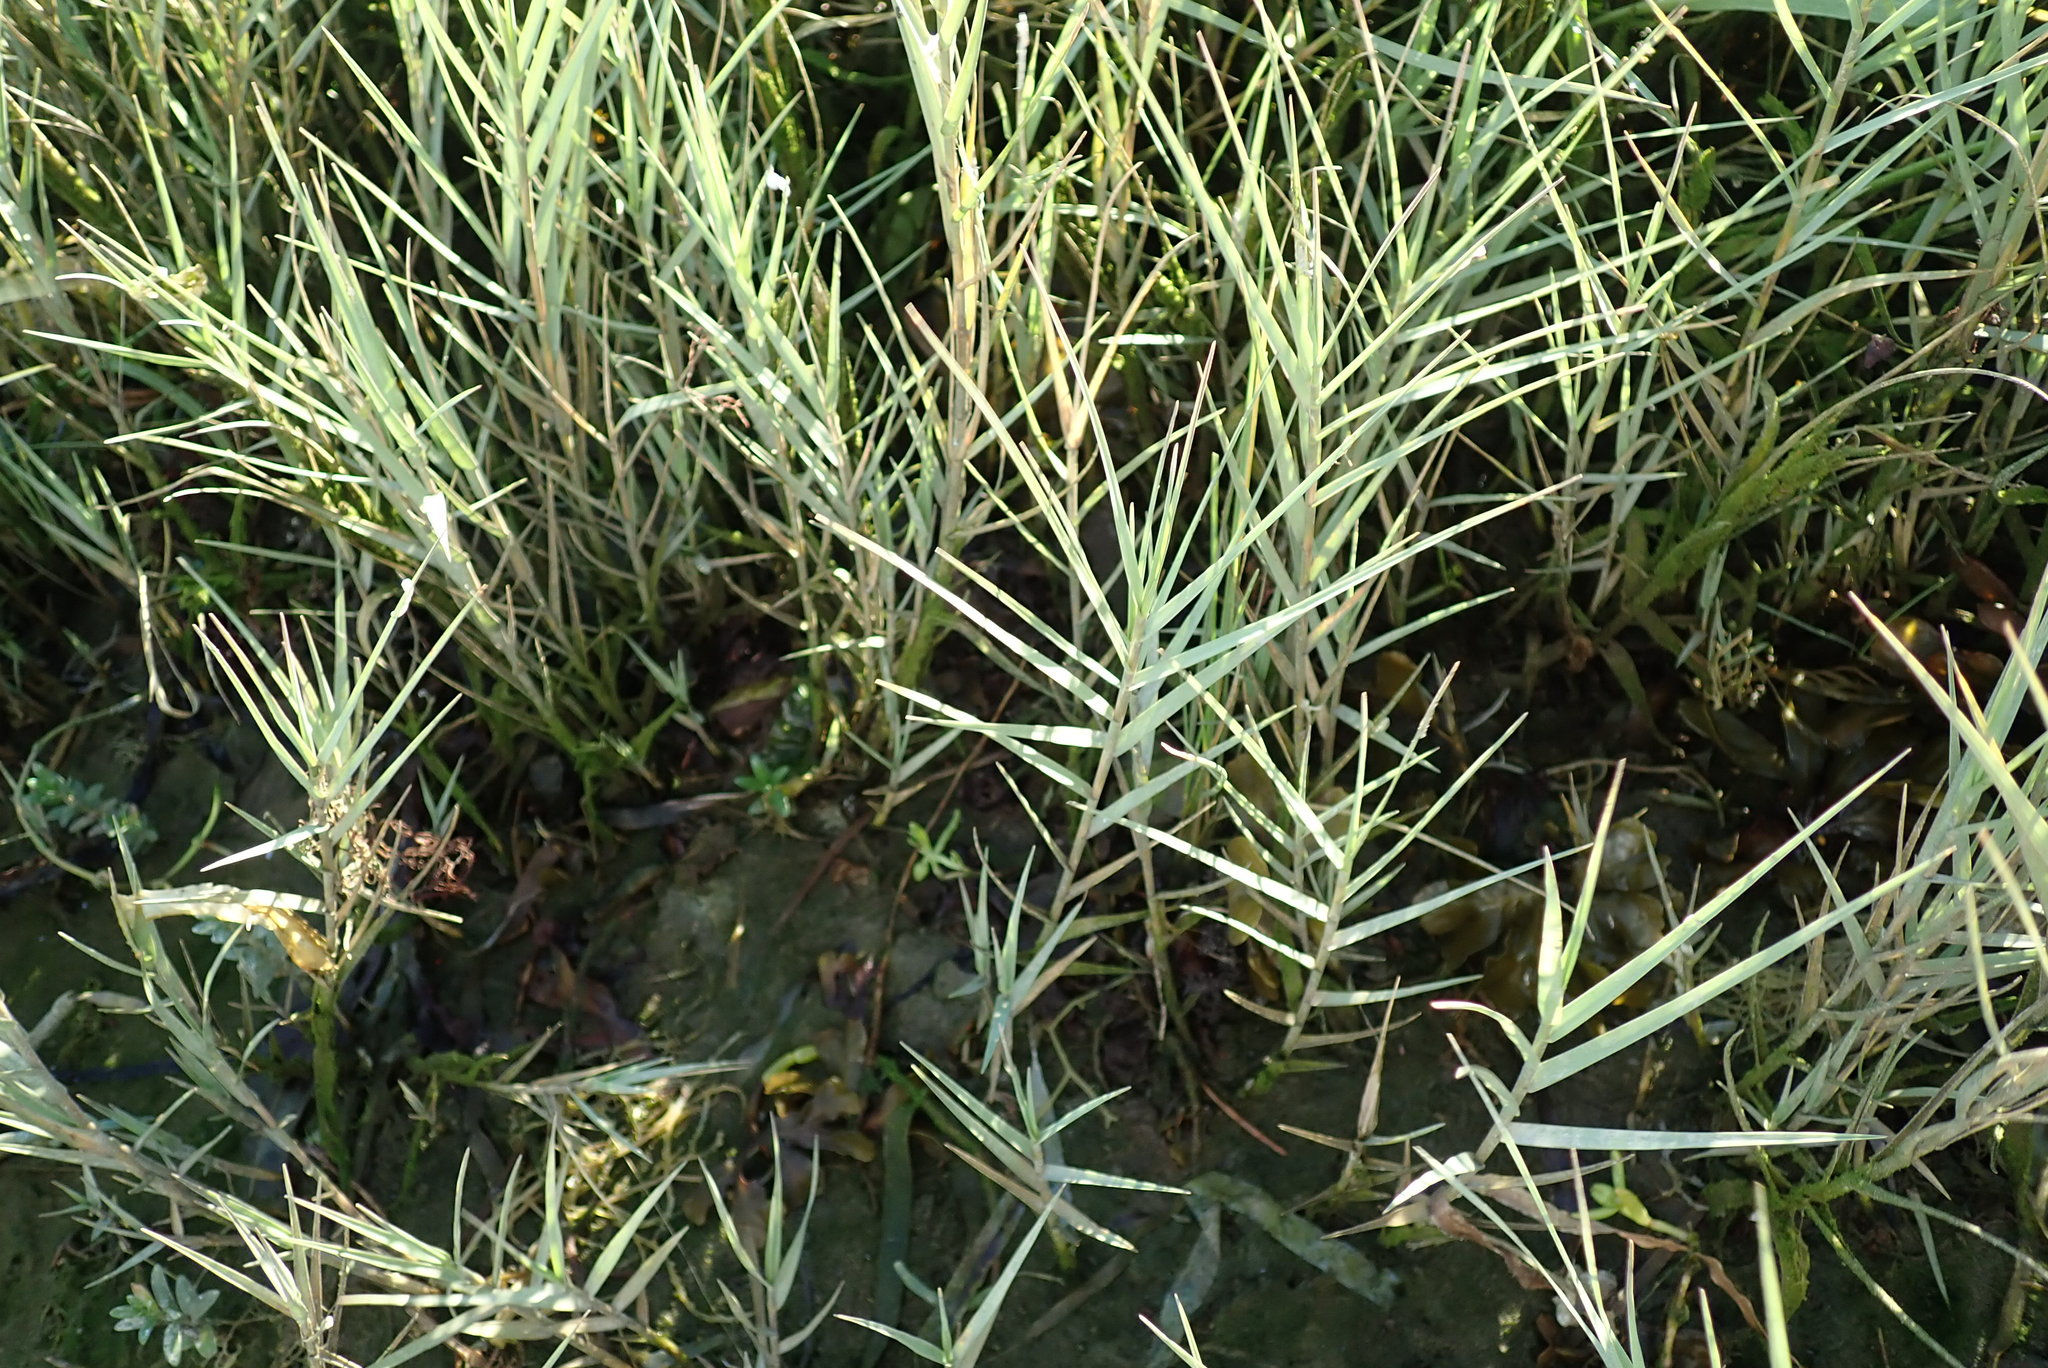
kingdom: Plantae
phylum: Tracheophyta
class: Liliopsida
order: Poales
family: Poaceae
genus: Distichlis
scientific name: Distichlis spicata
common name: Saltgrass
